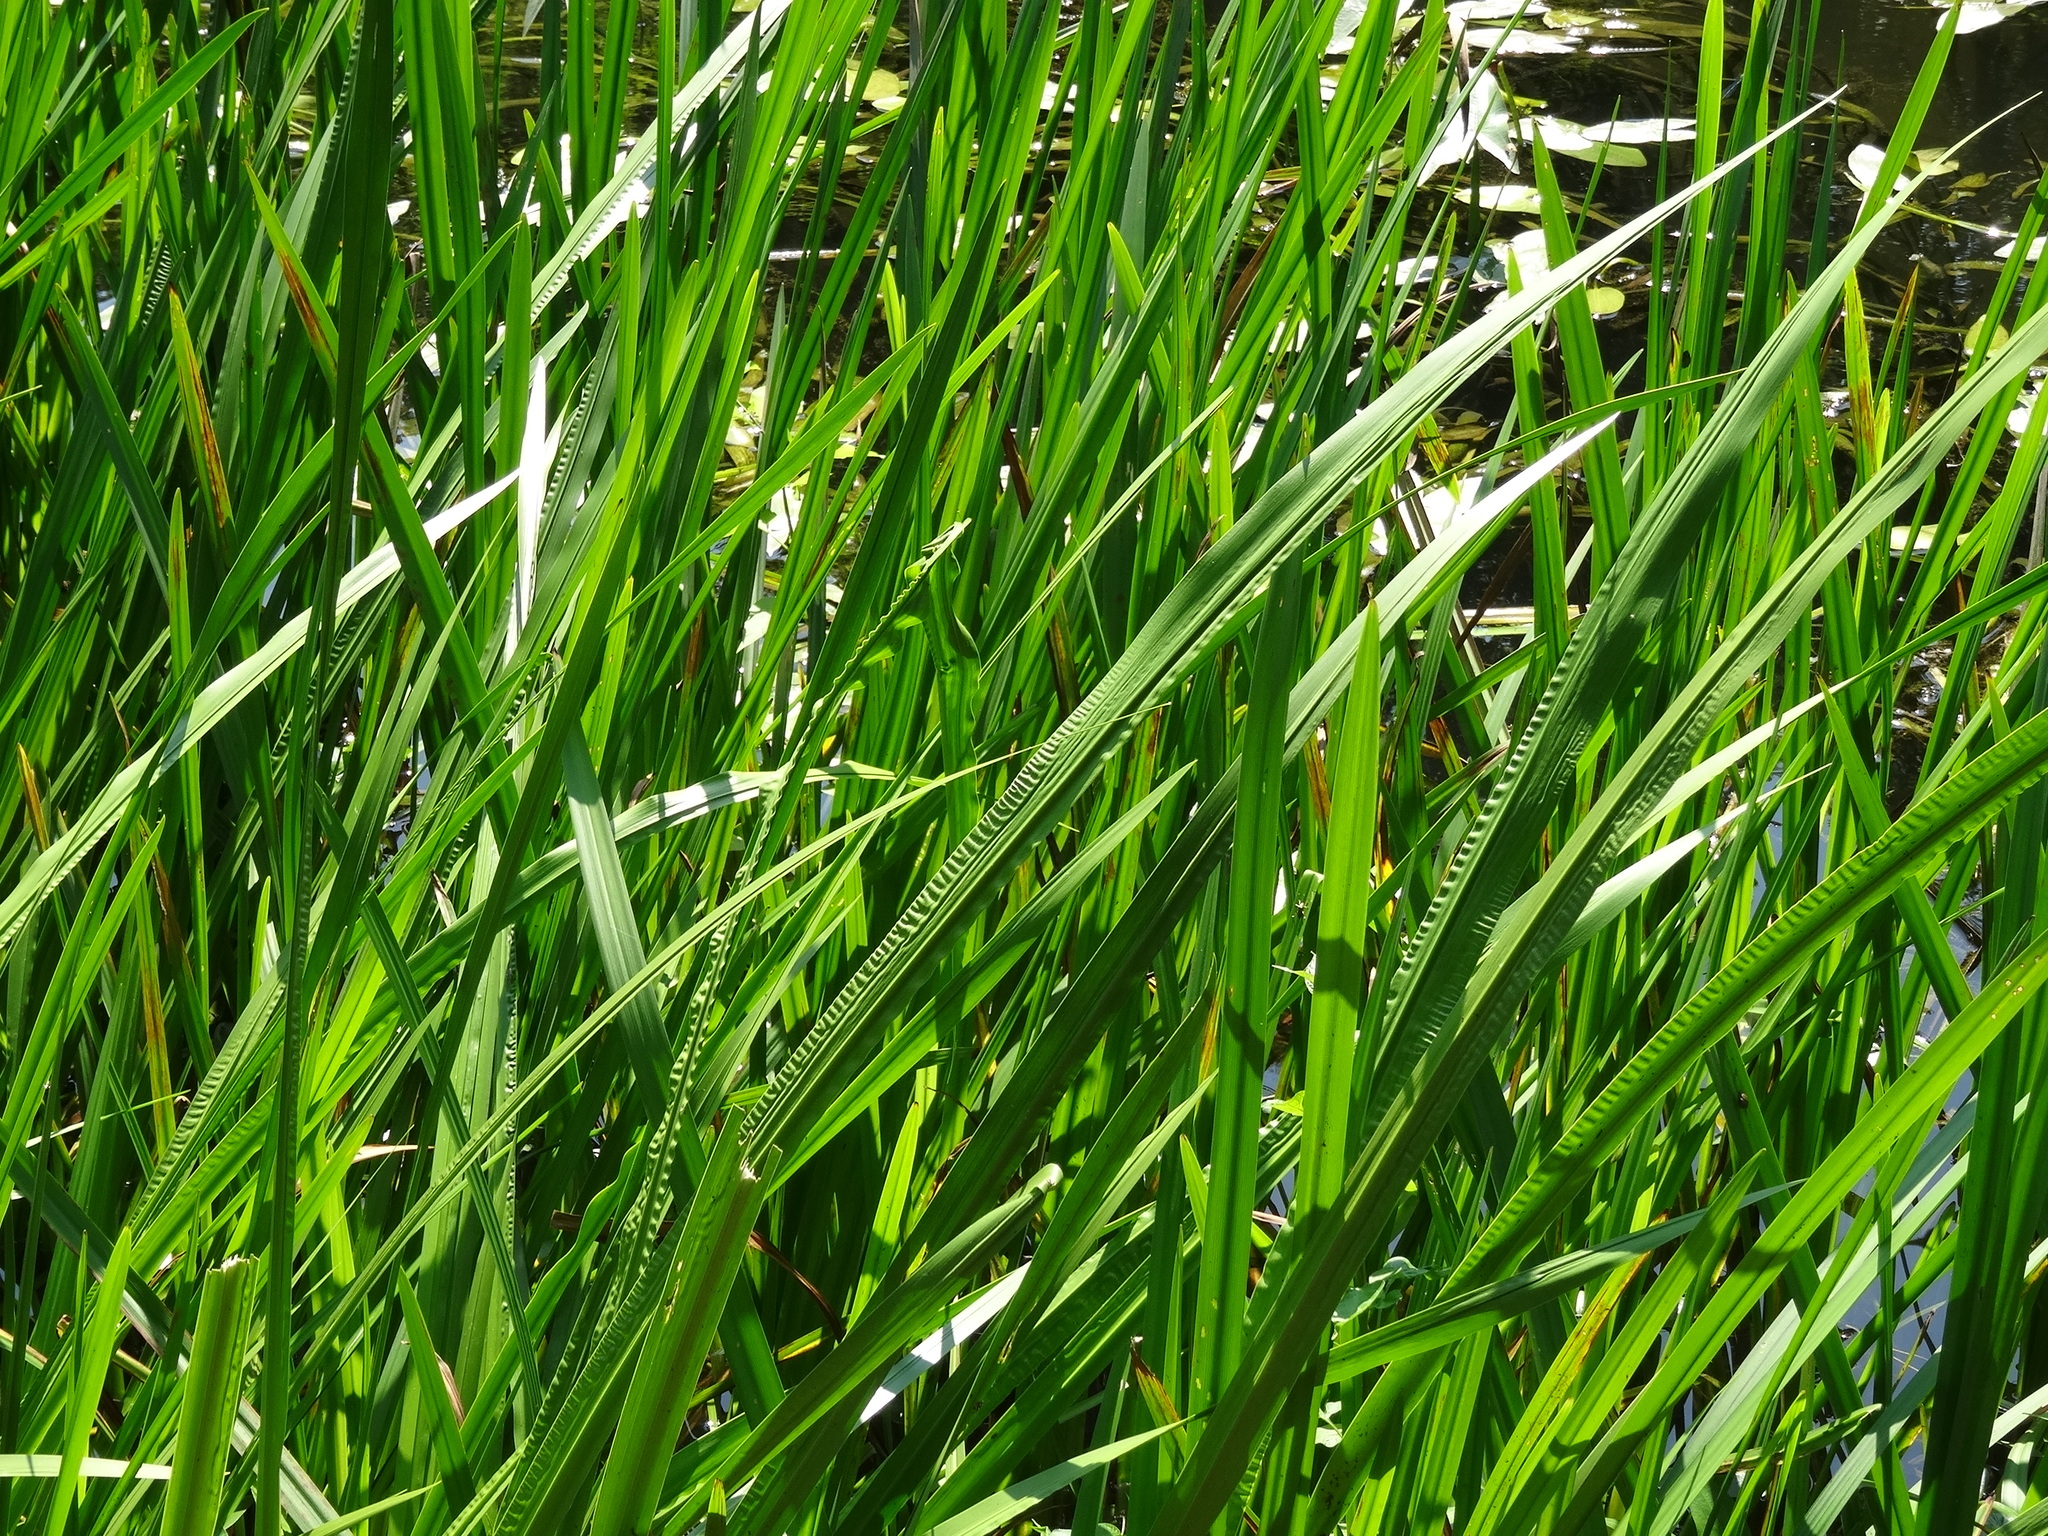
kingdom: Plantae
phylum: Tracheophyta
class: Liliopsida
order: Acorales
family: Acoraceae
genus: Acorus
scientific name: Acorus calamus
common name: Sweet-flag
